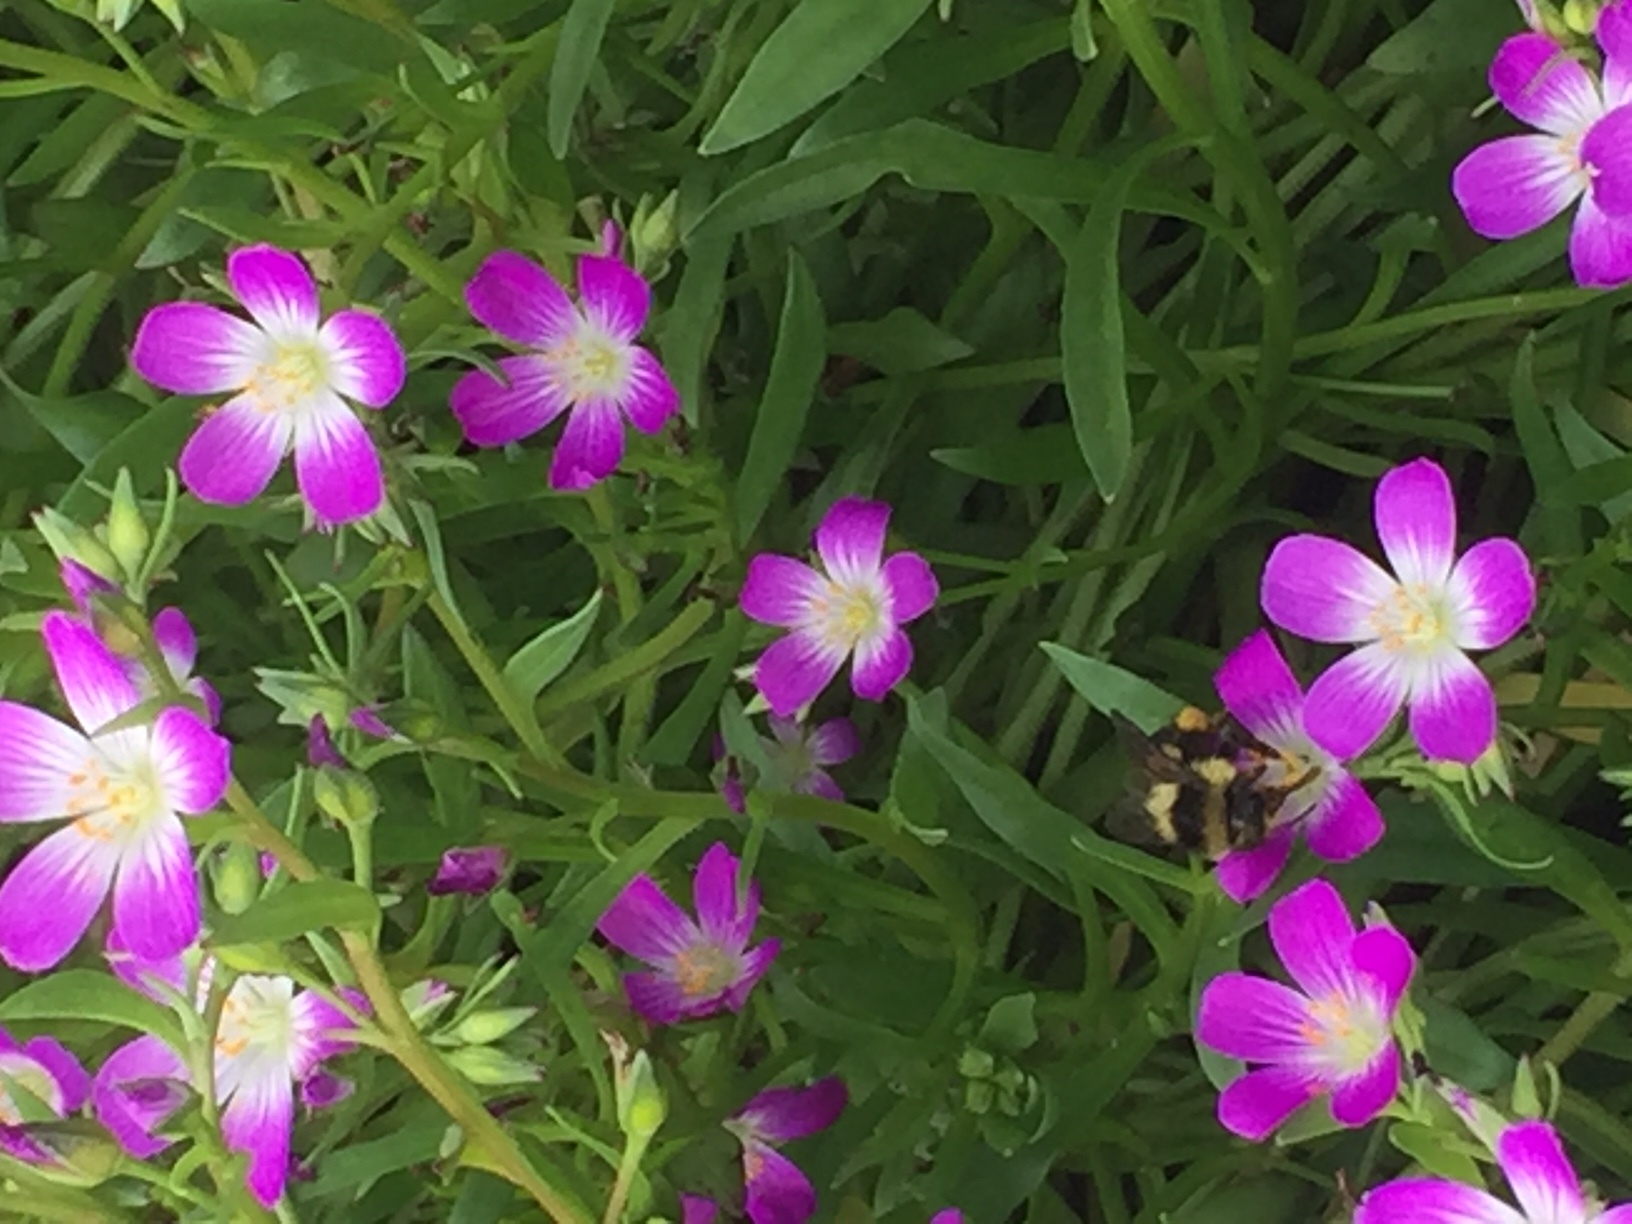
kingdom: Animalia
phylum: Arthropoda
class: Insecta
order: Hymenoptera
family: Apidae
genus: Bombus
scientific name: Bombus melanopygus
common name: Black tail bumble bee
